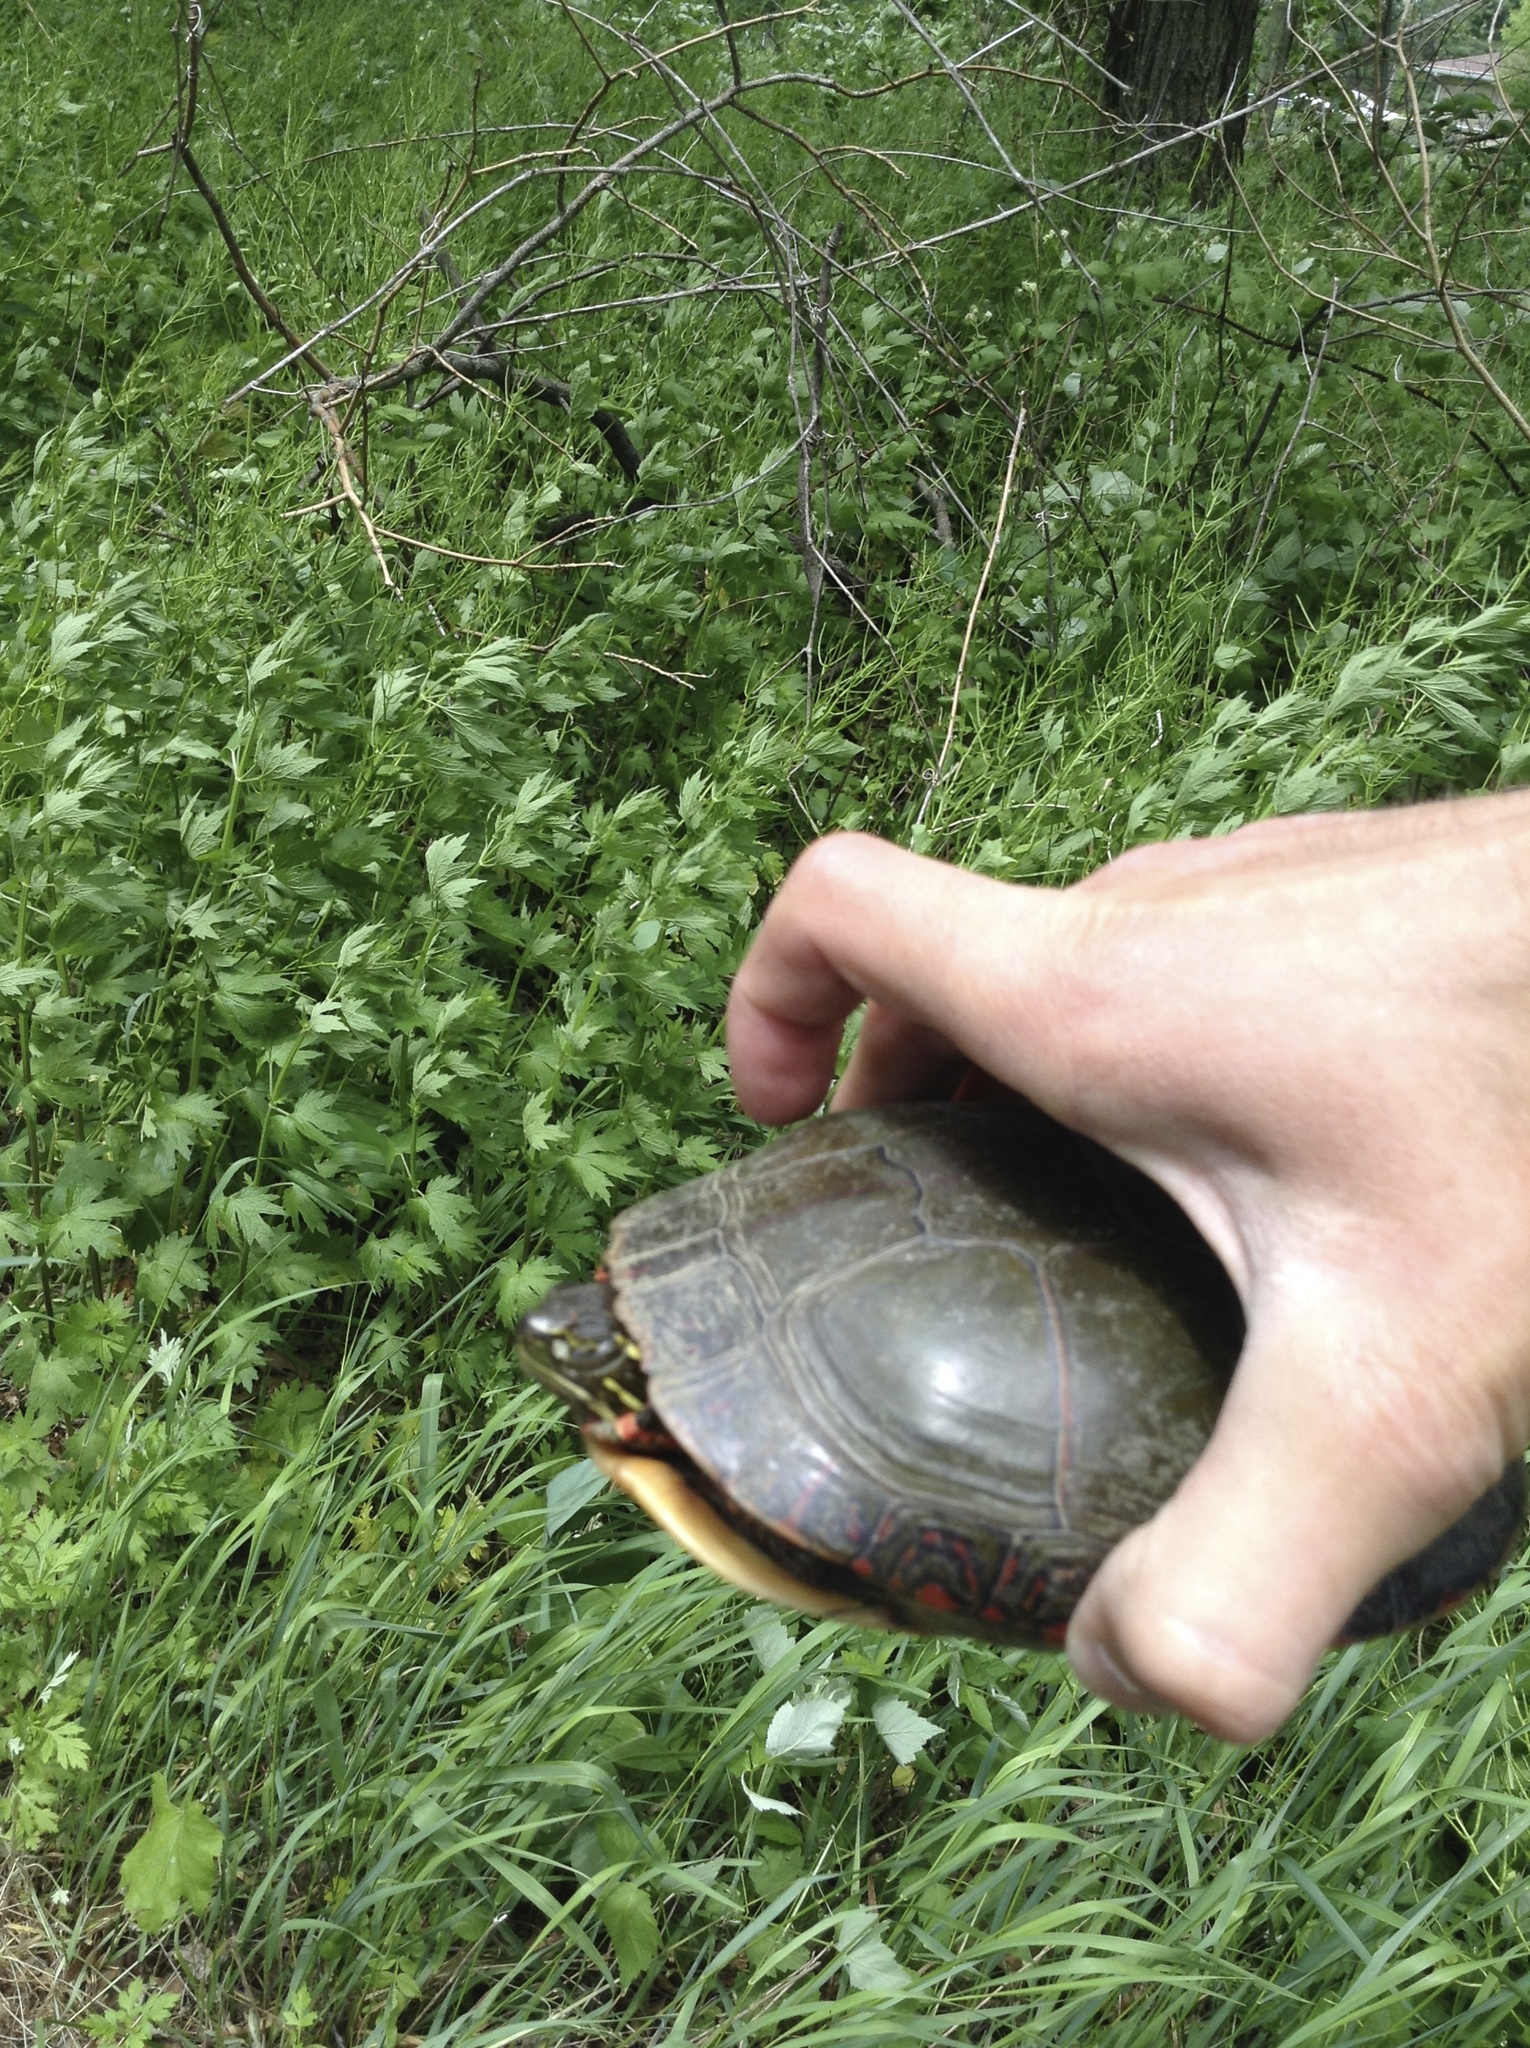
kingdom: Animalia
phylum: Chordata
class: Testudines
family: Emydidae
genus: Chrysemys
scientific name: Chrysemys picta
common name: Painted turtle
